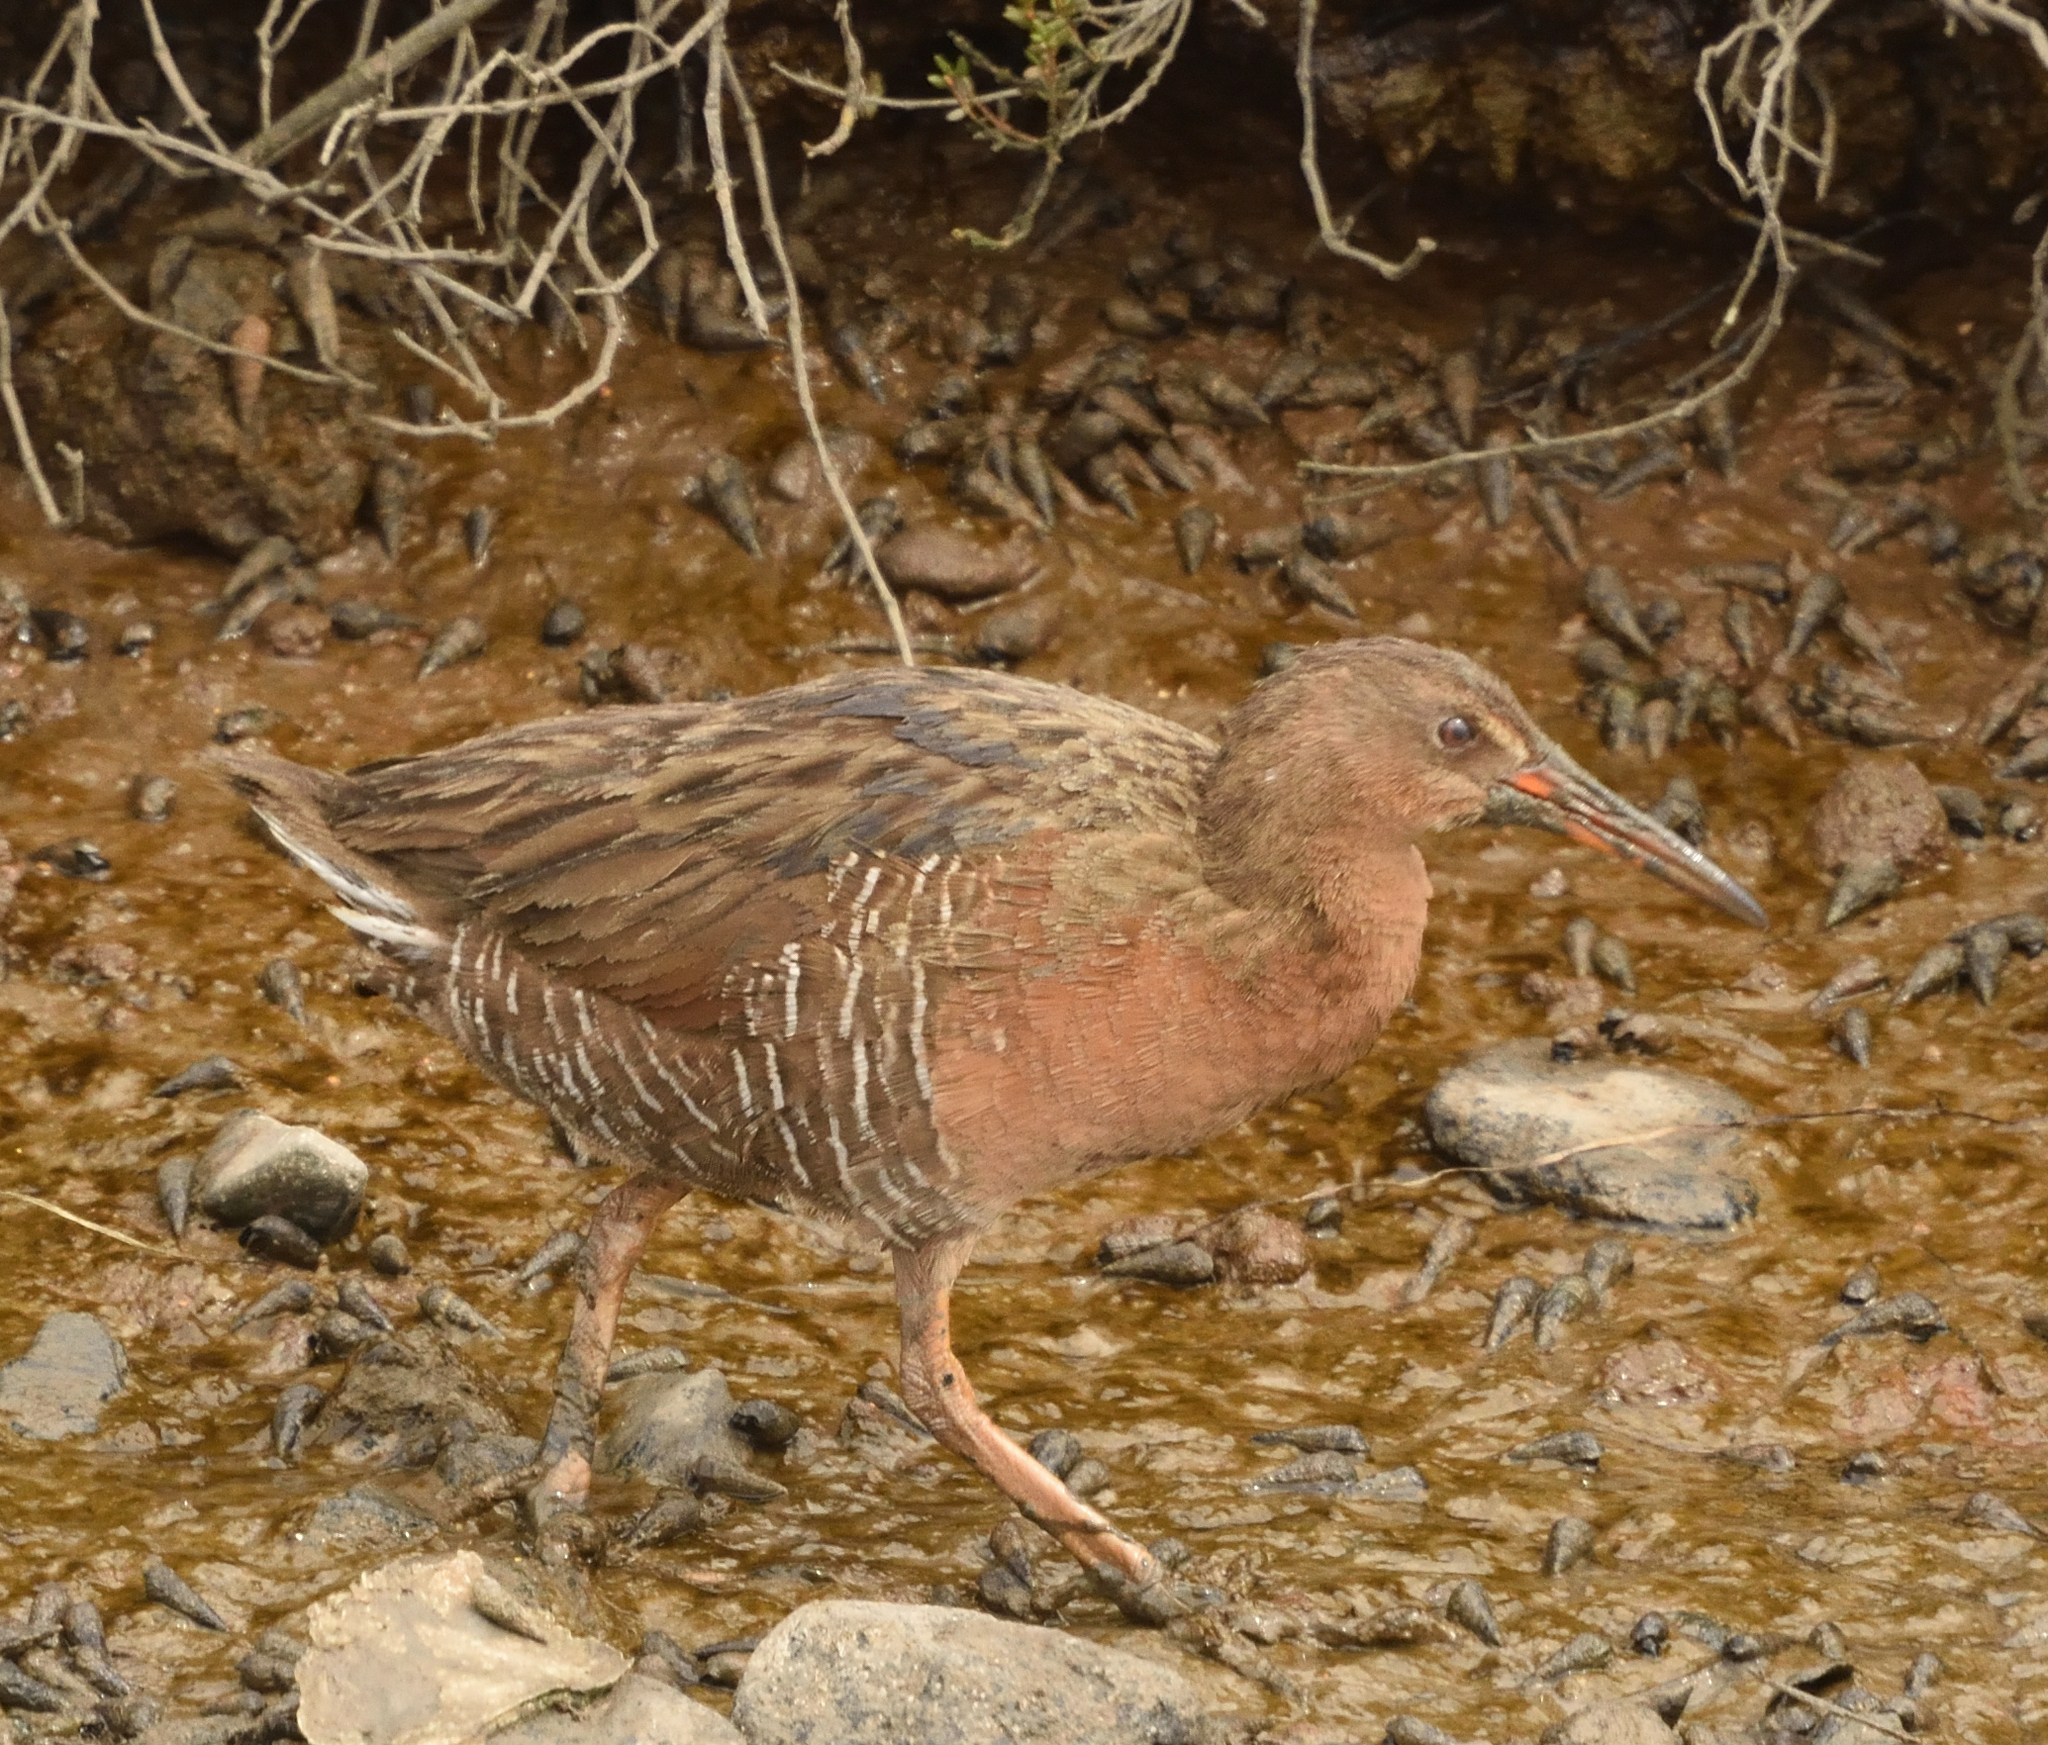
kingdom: Animalia
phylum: Chordata
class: Aves
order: Gruiformes
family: Rallidae
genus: Rallus
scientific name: Rallus obsoletus
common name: Ridgway's rail
